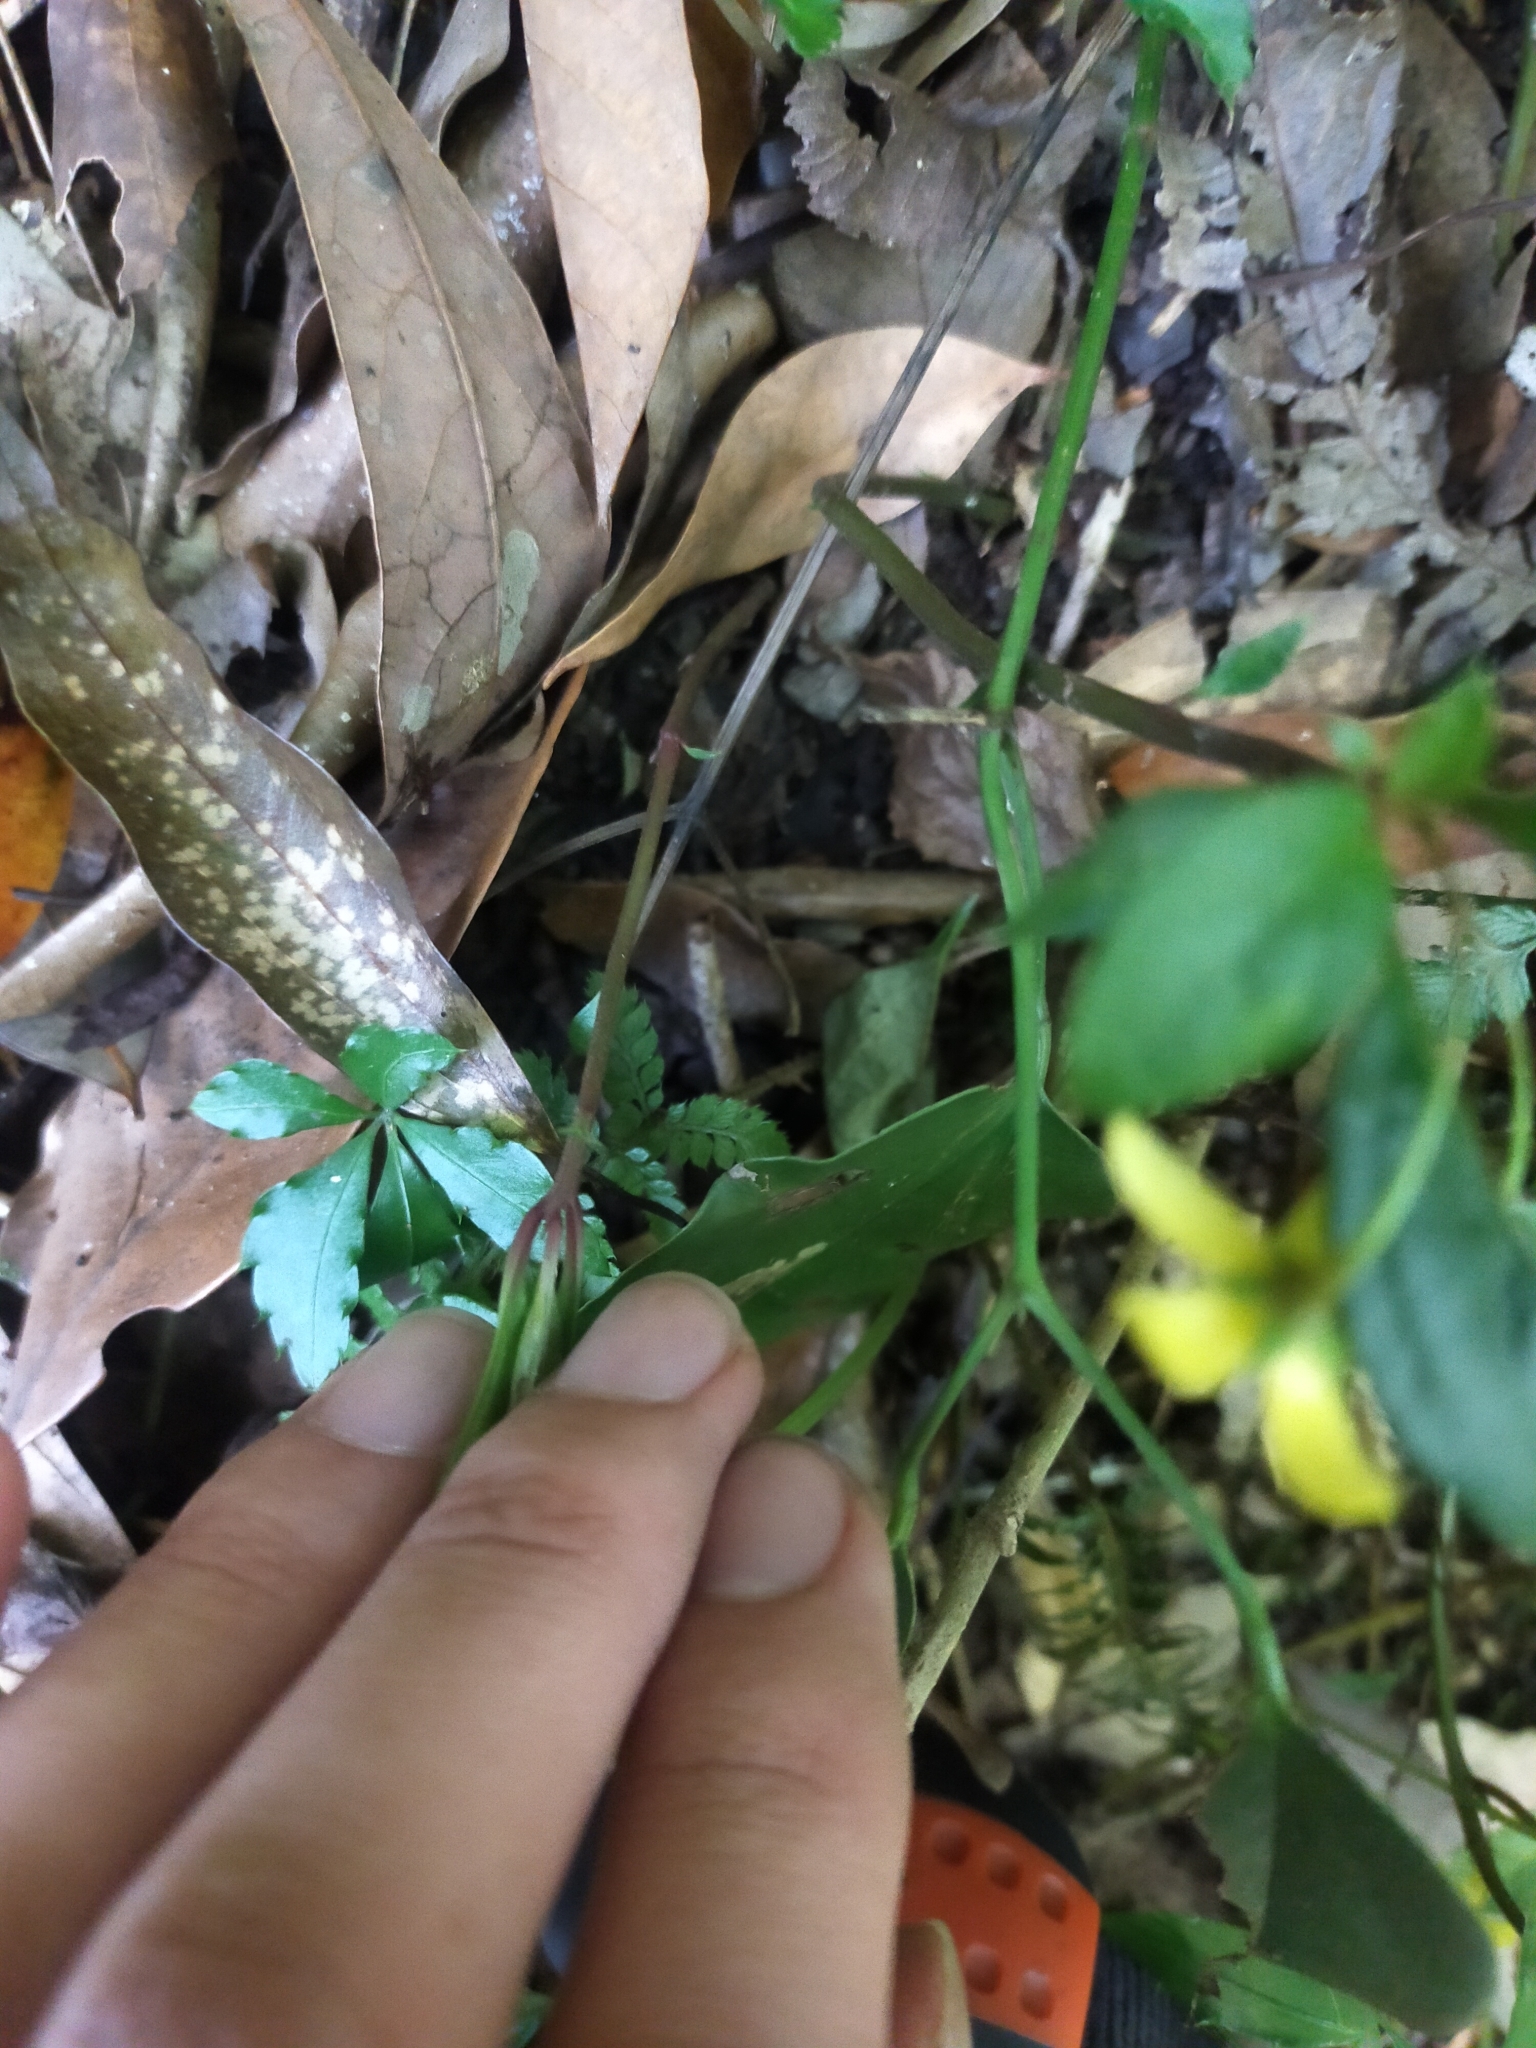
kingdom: Plantae
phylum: Tracheophyta
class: Magnoliopsida
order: Ericales
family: Primulaceae
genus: Lysimachia
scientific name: Lysimachia ardisioides
